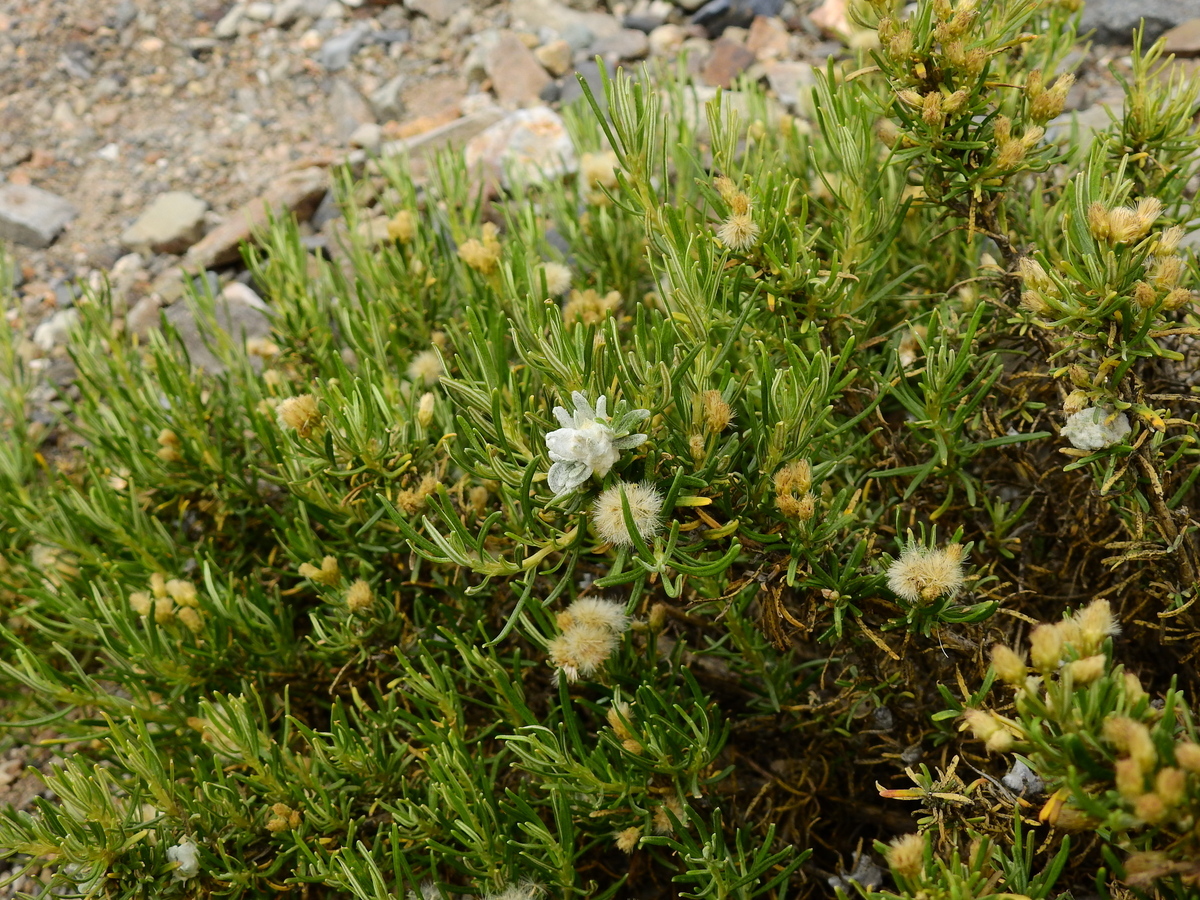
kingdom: Plantae
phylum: Tracheophyta
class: Magnoliopsida
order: Asterales
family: Asteraceae
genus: Baccharis
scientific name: Baccharis grisebachii
